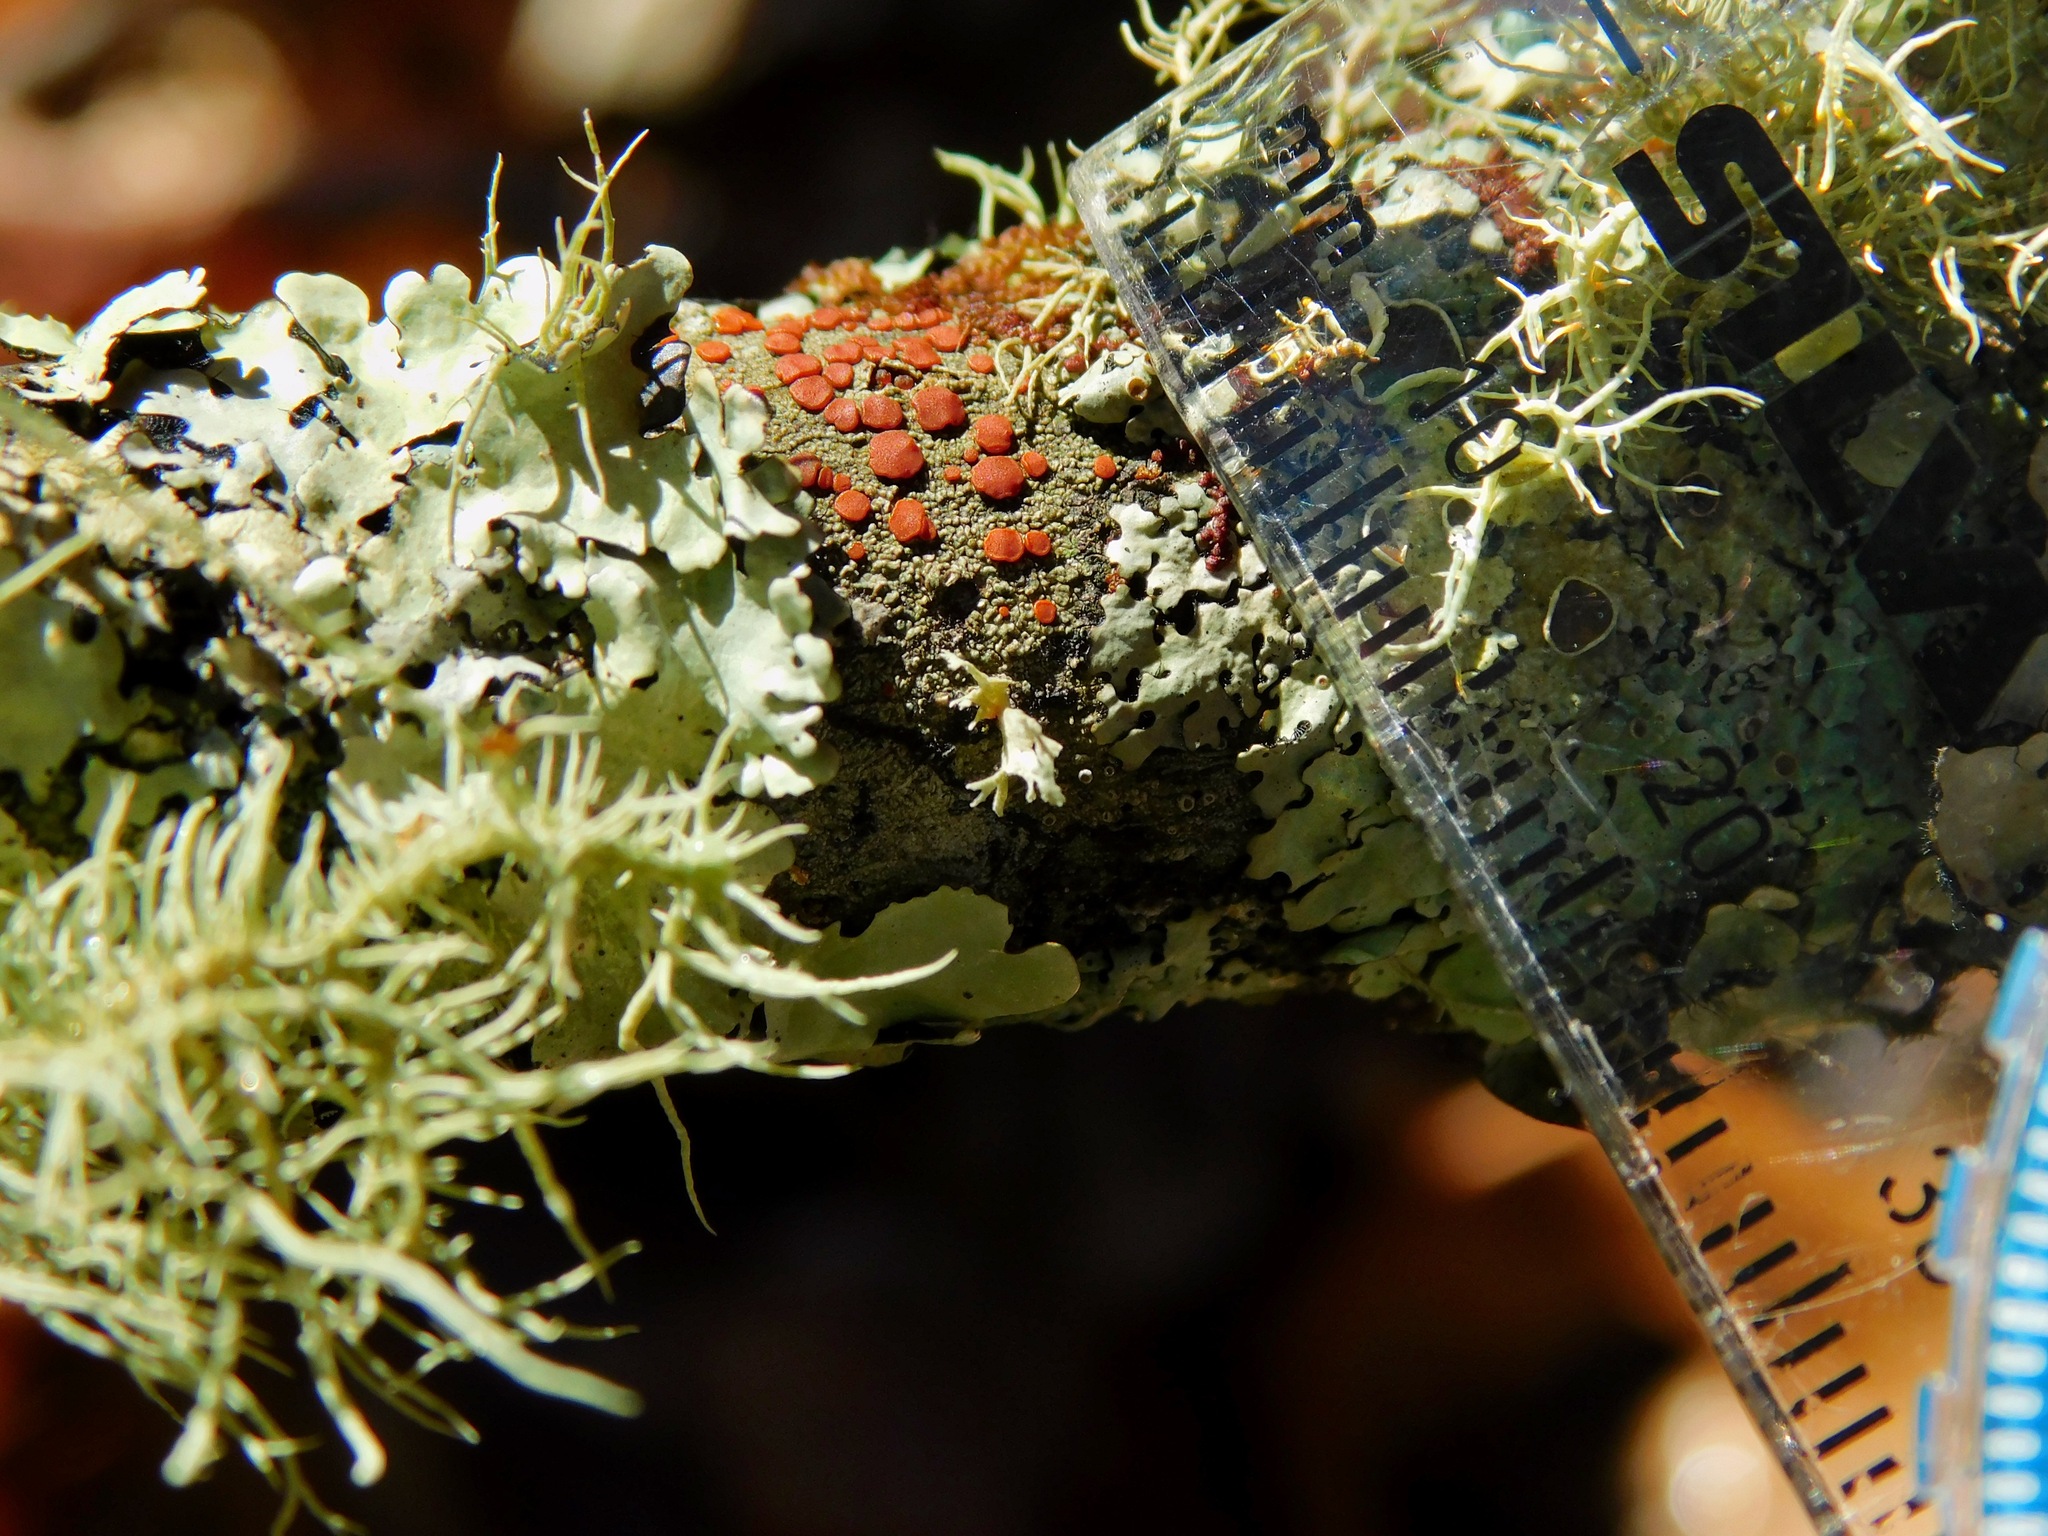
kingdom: Fungi
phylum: Ascomycota
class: Lecanoromycetes
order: Lecanorales
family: Ramboldiaceae
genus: Ramboldia
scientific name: Ramboldia russula
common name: Red heads
